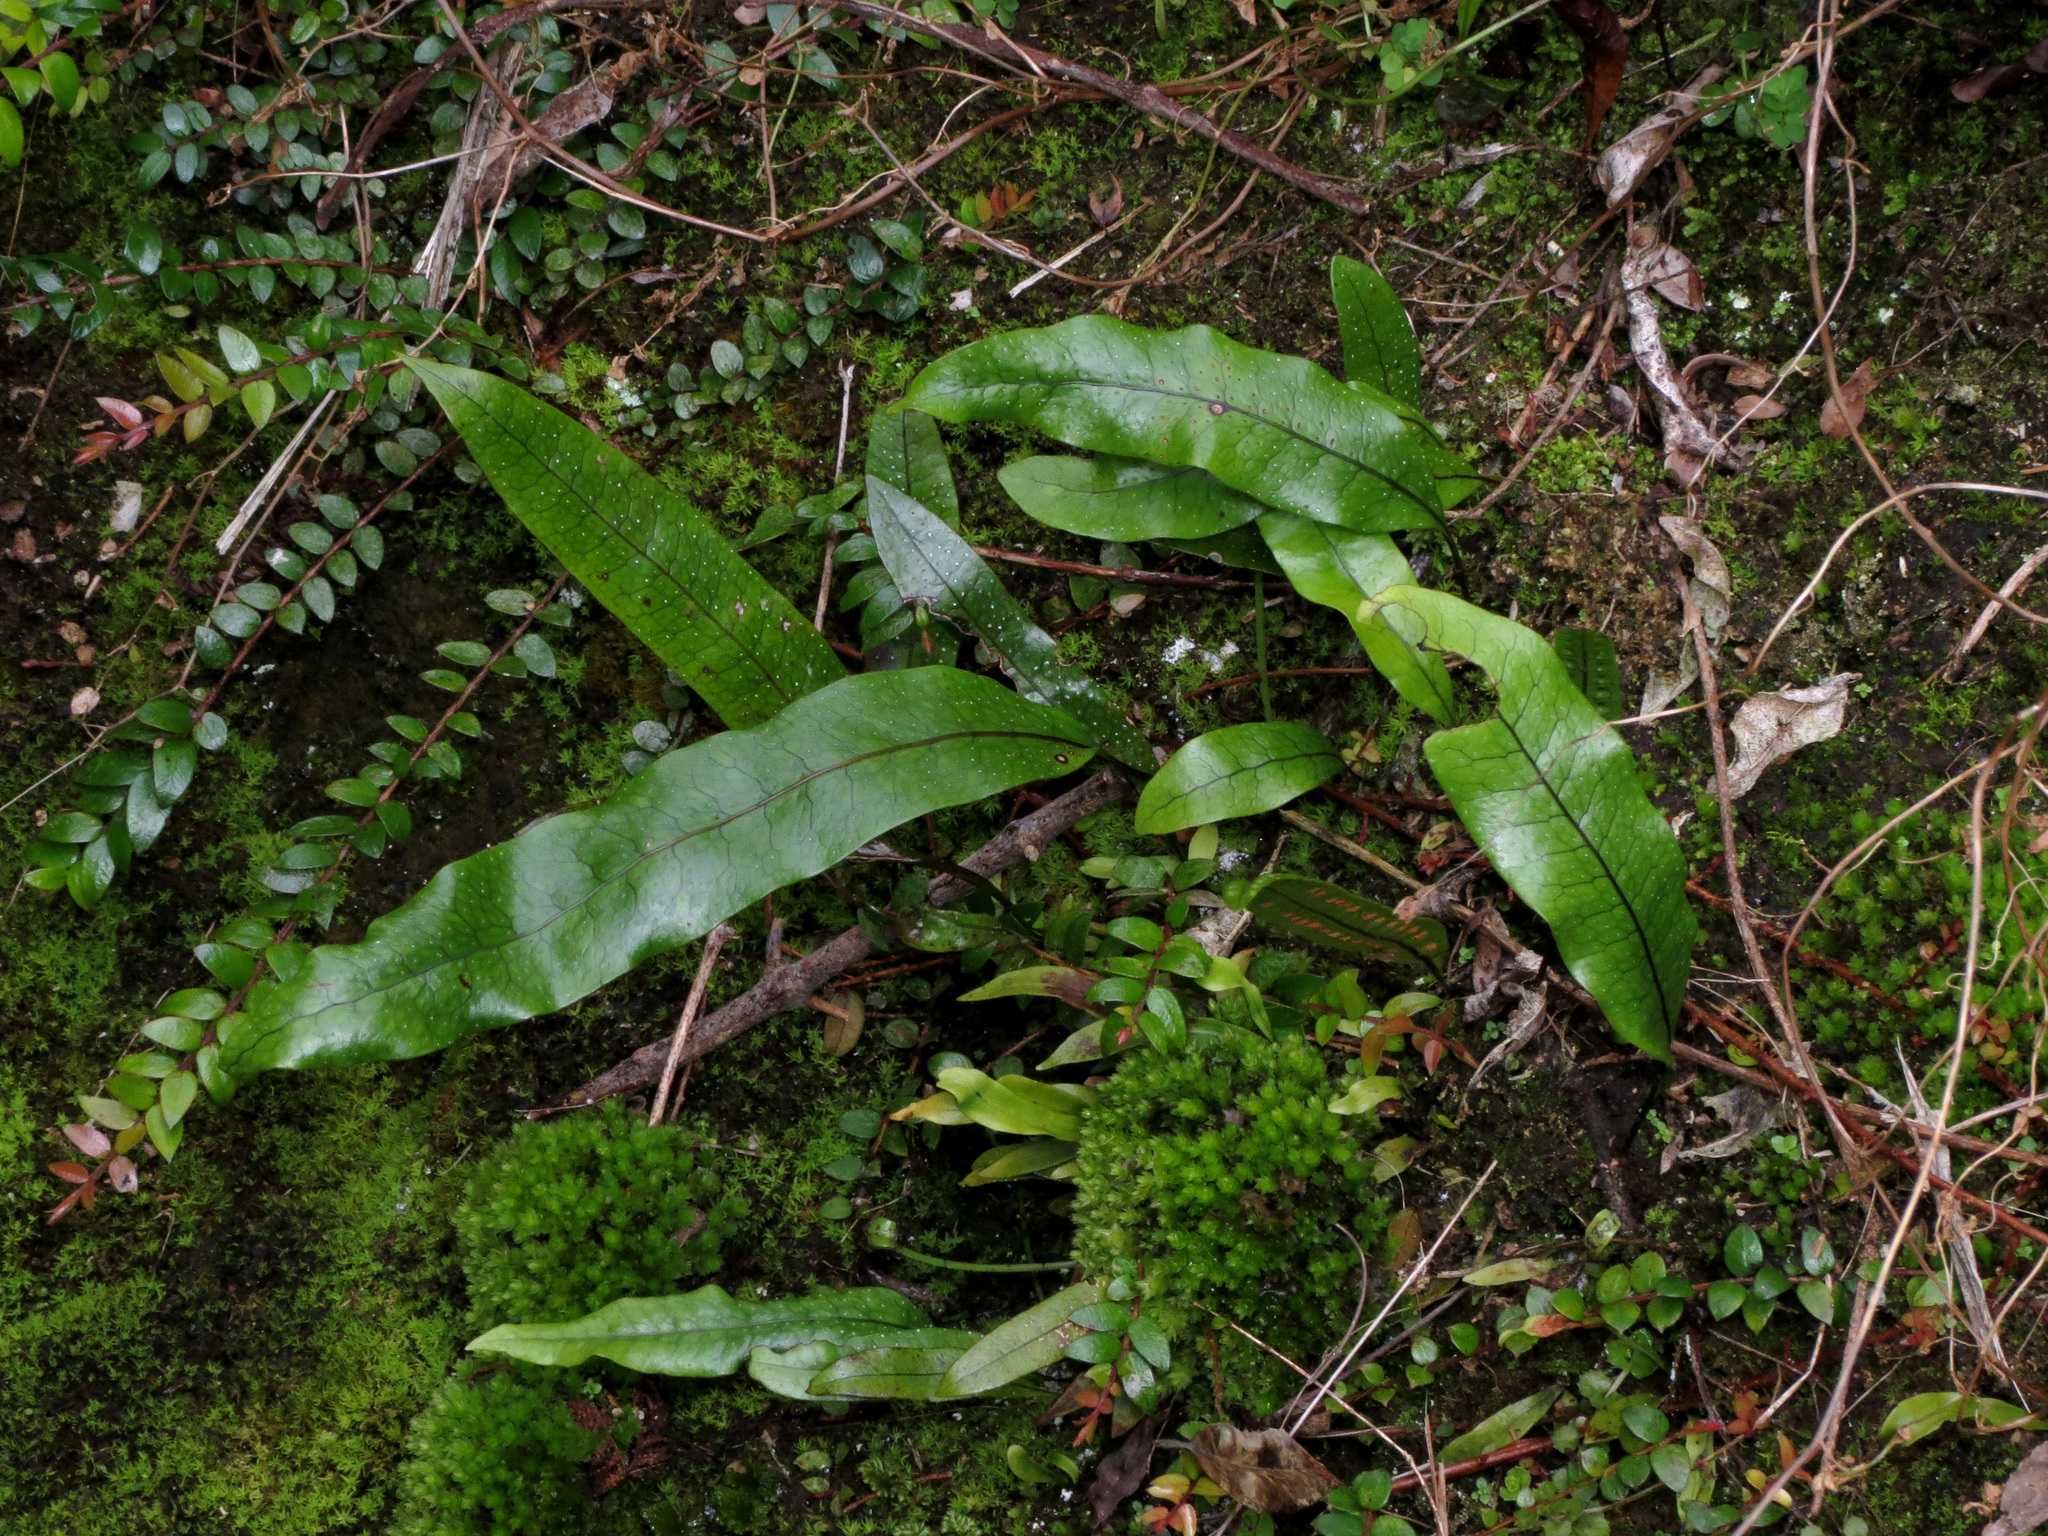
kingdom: Plantae
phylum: Tracheophyta
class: Polypodiopsida
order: Polypodiales
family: Polypodiaceae
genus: Lecanopteris
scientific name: Lecanopteris pustulata
